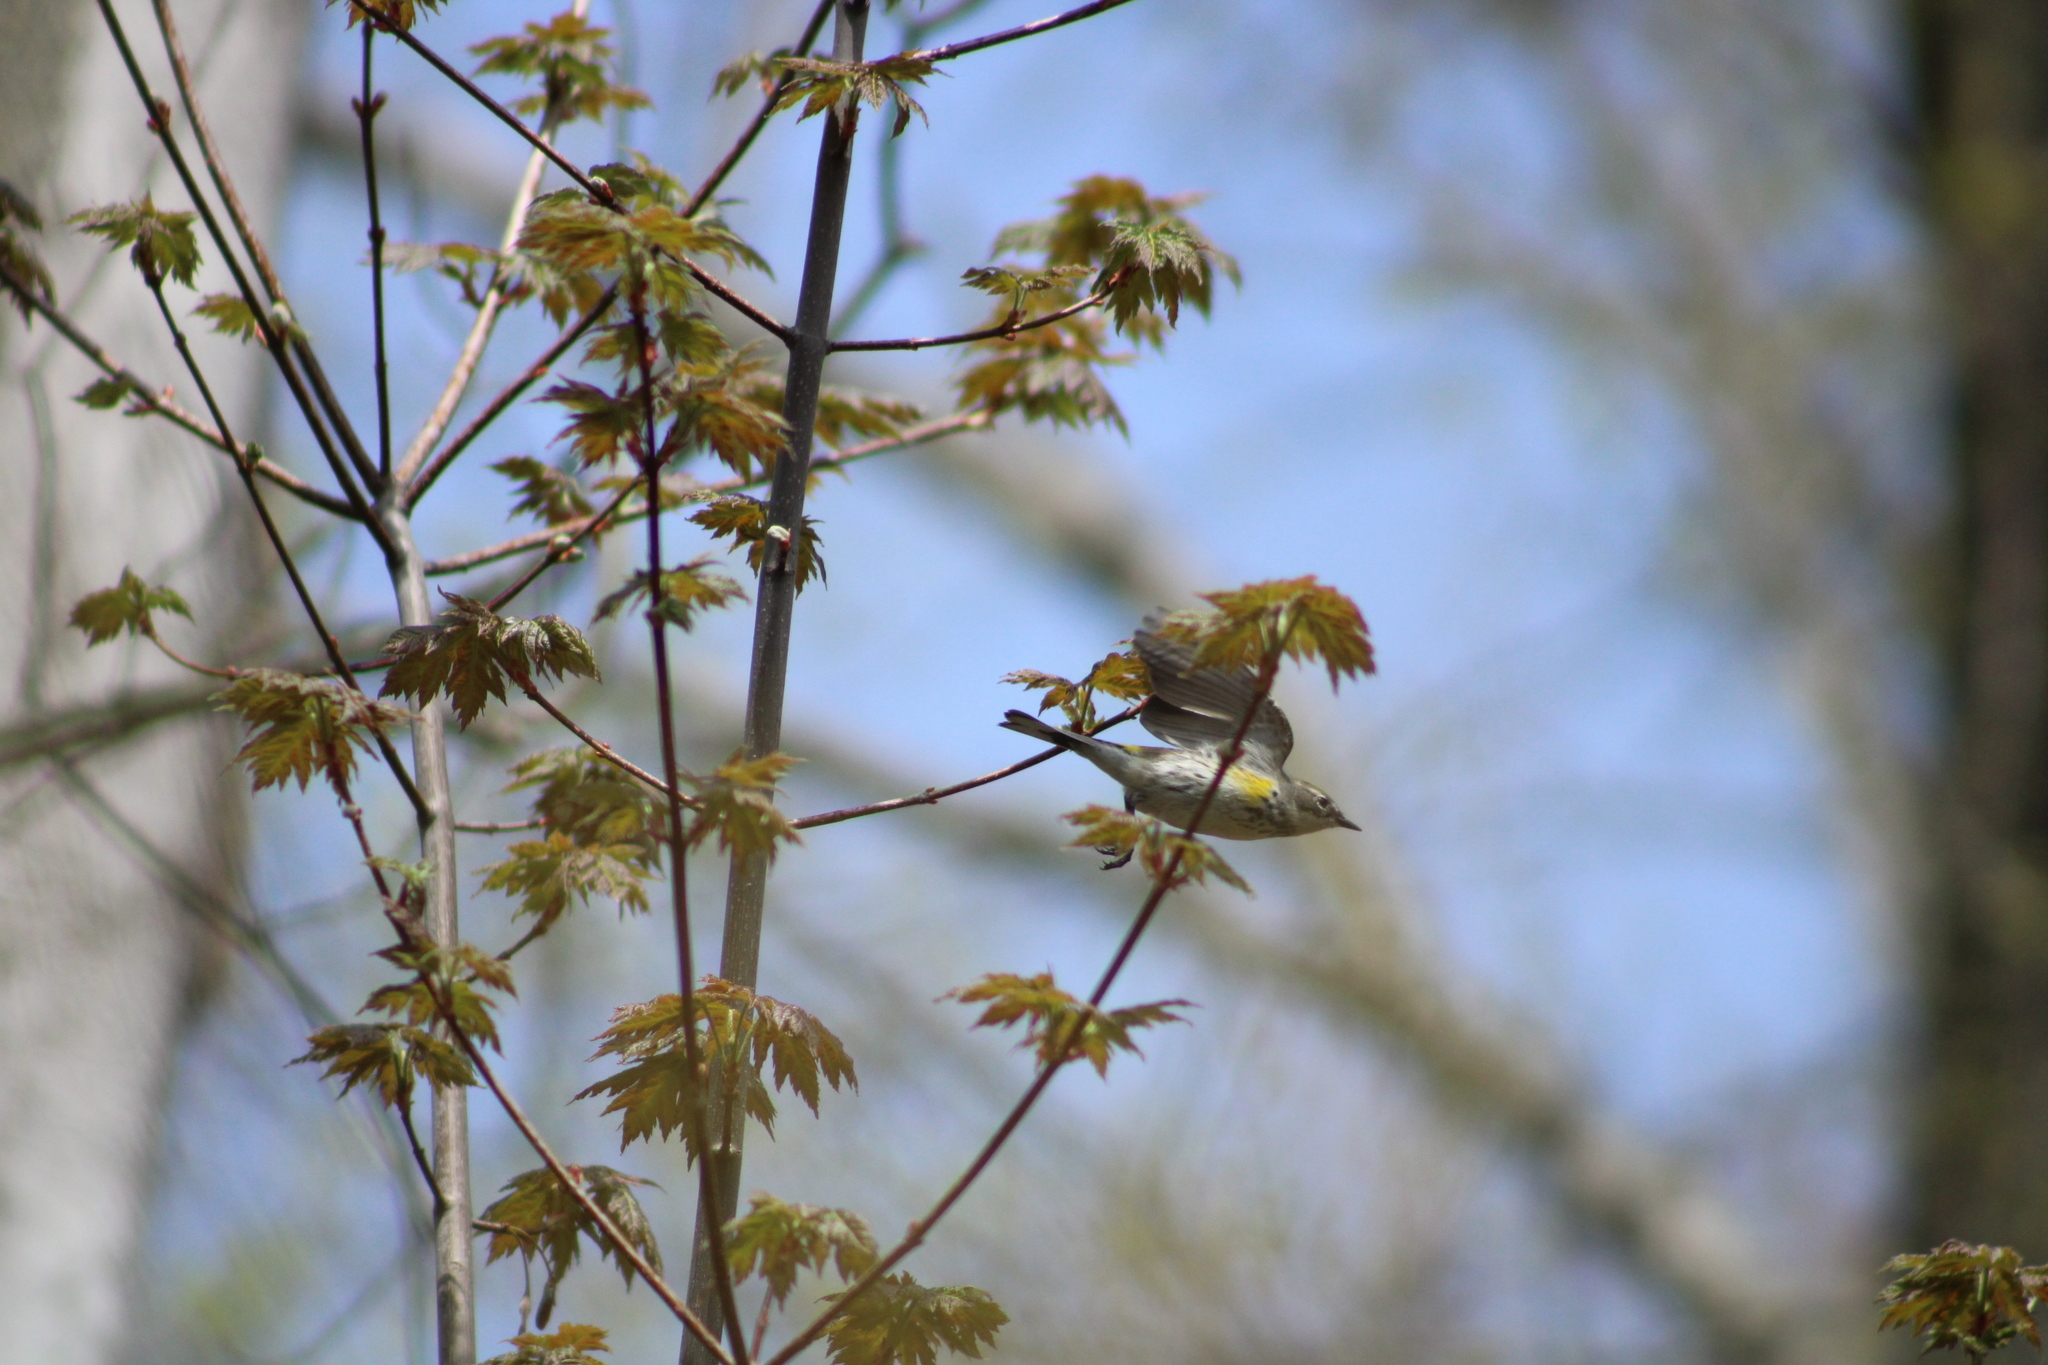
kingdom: Animalia
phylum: Chordata
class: Aves
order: Passeriformes
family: Parulidae
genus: Setophaga
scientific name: Setophaga coronata
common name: Myrtle warbler
